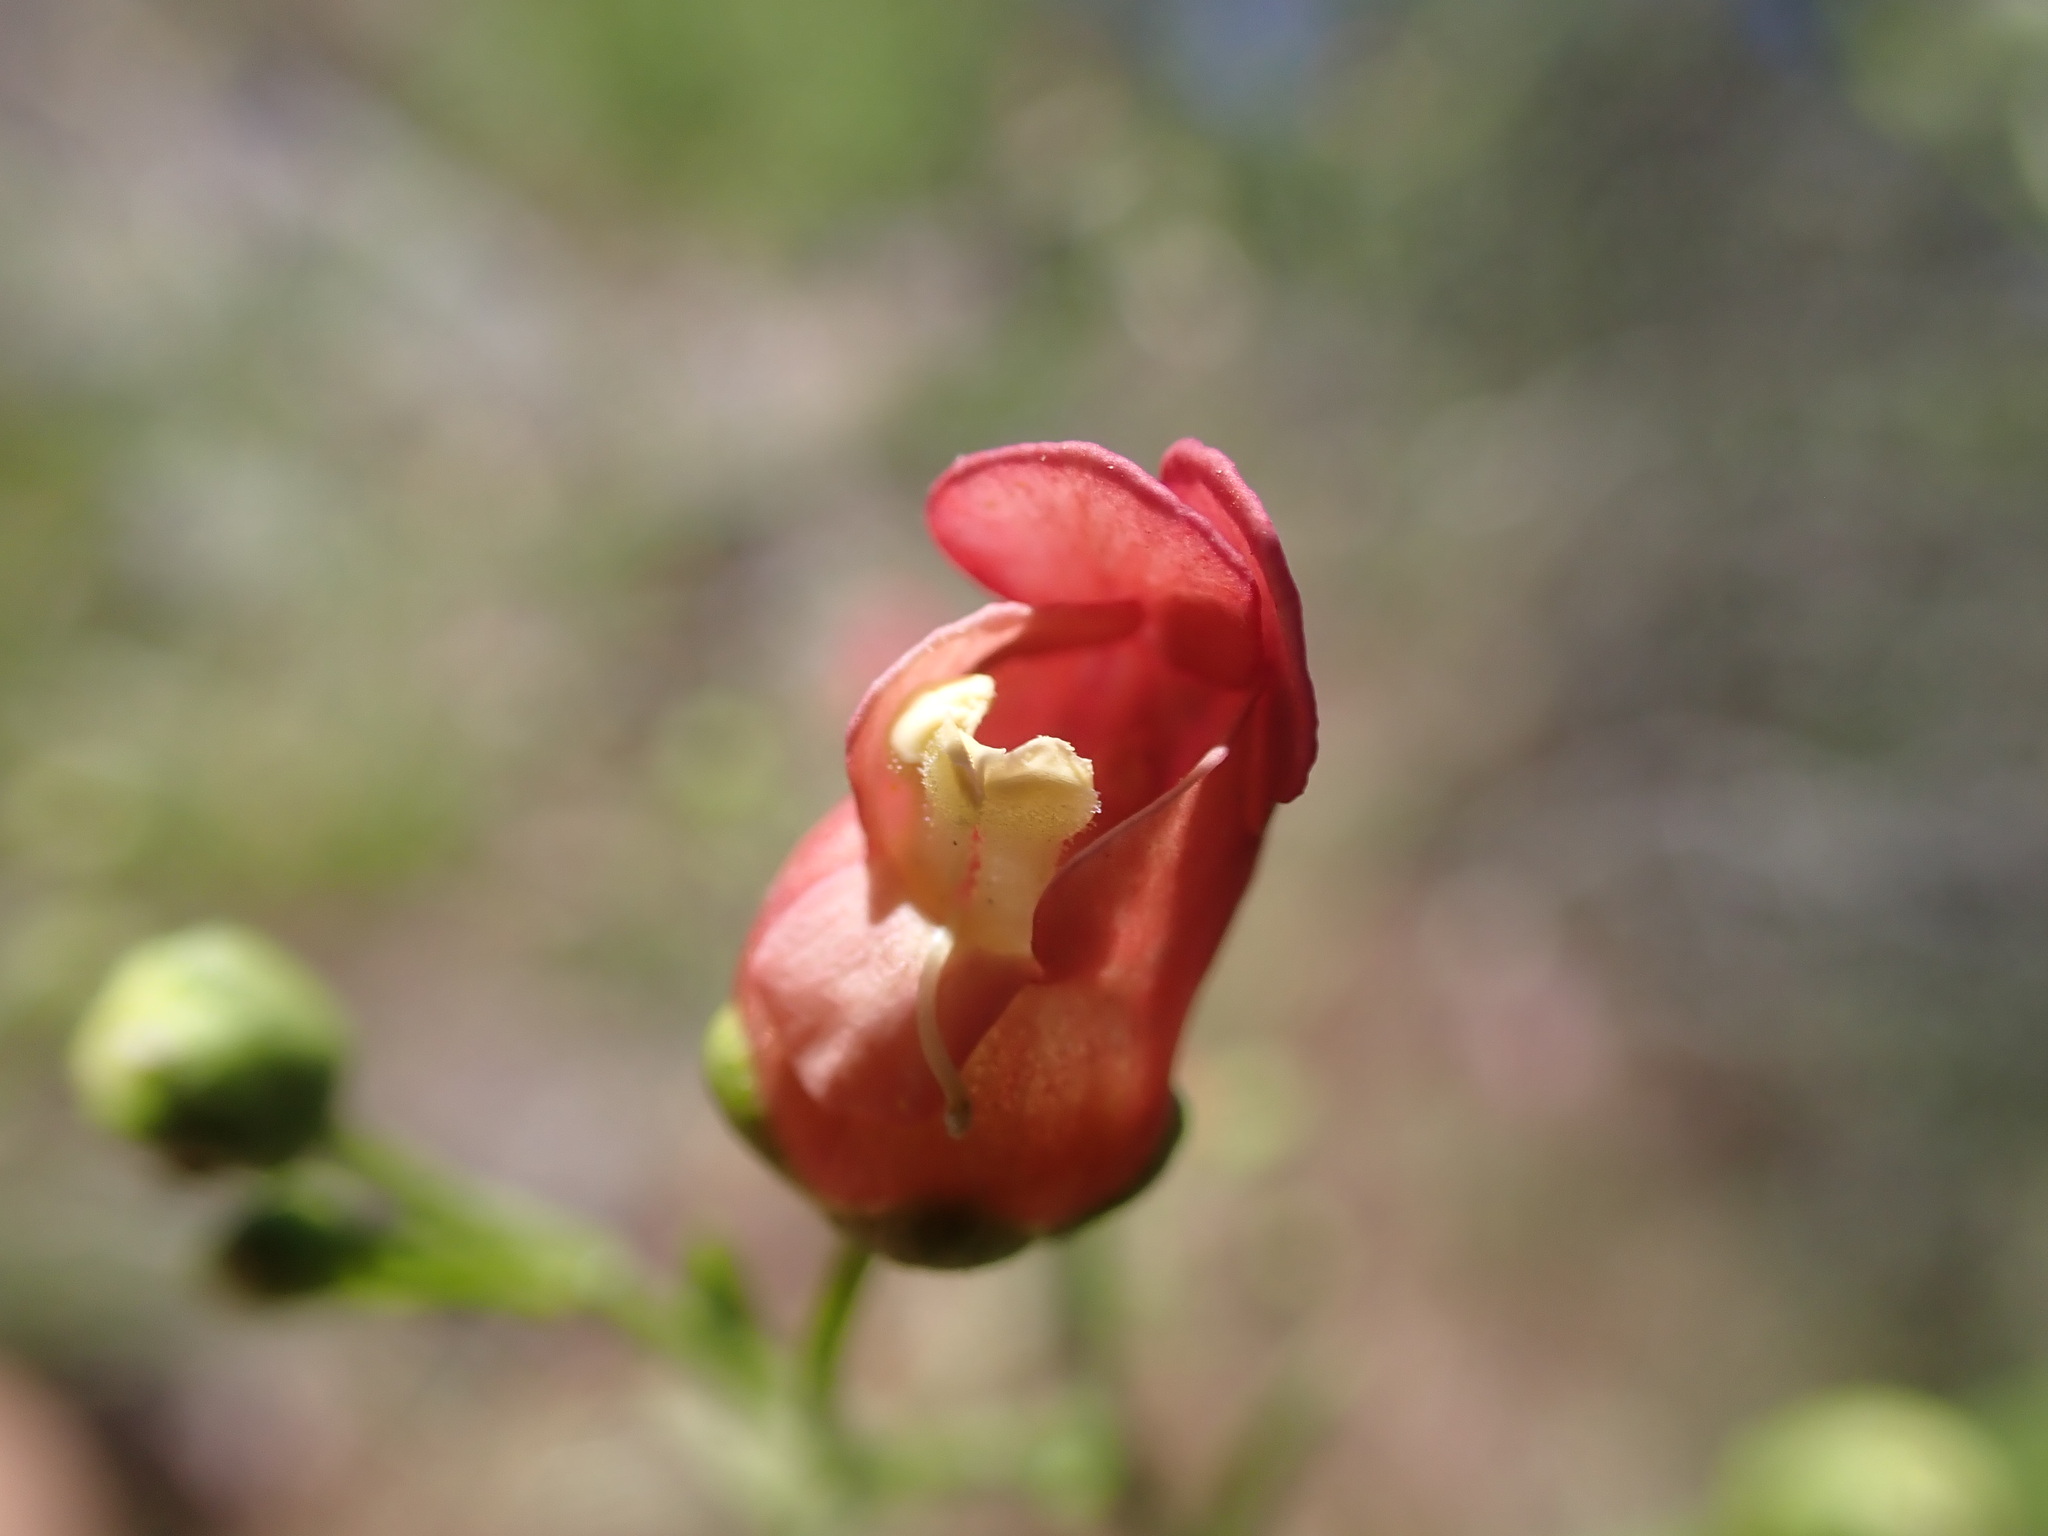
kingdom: Plantae
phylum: Tracheophyta
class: Magnoliopsida
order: Lamiales
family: Scrophulariaceae
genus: Scrophularia
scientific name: Scrophularia californica
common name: California figwort
